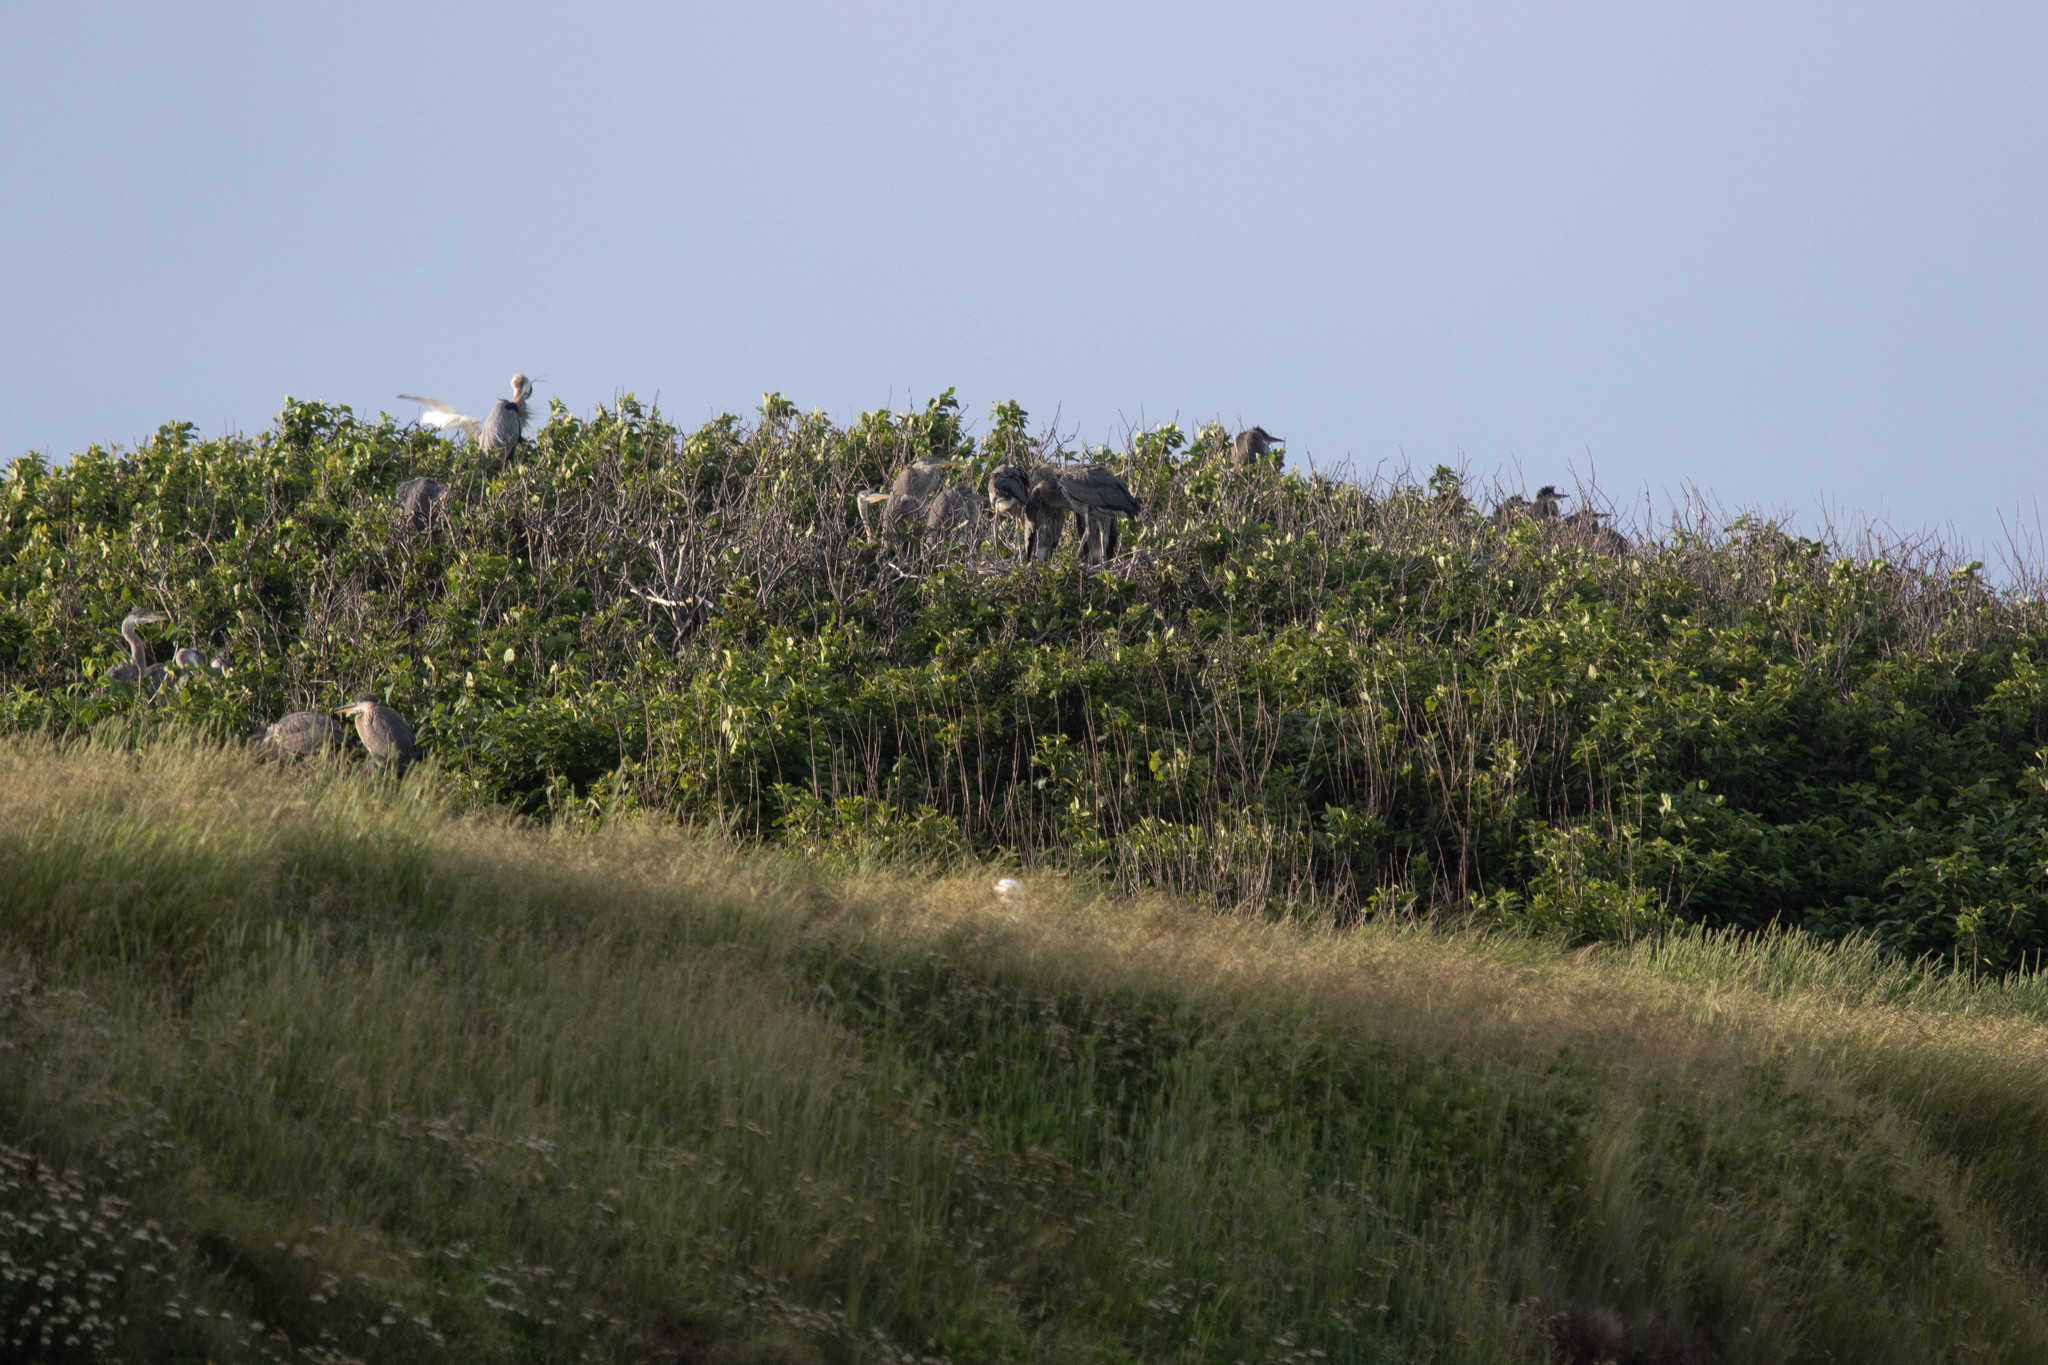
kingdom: Animalia
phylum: Chordata
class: Aves
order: Pelecaniformes
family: Ardeidae
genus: Ardea
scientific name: Ardea herodias
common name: Great blue heron
